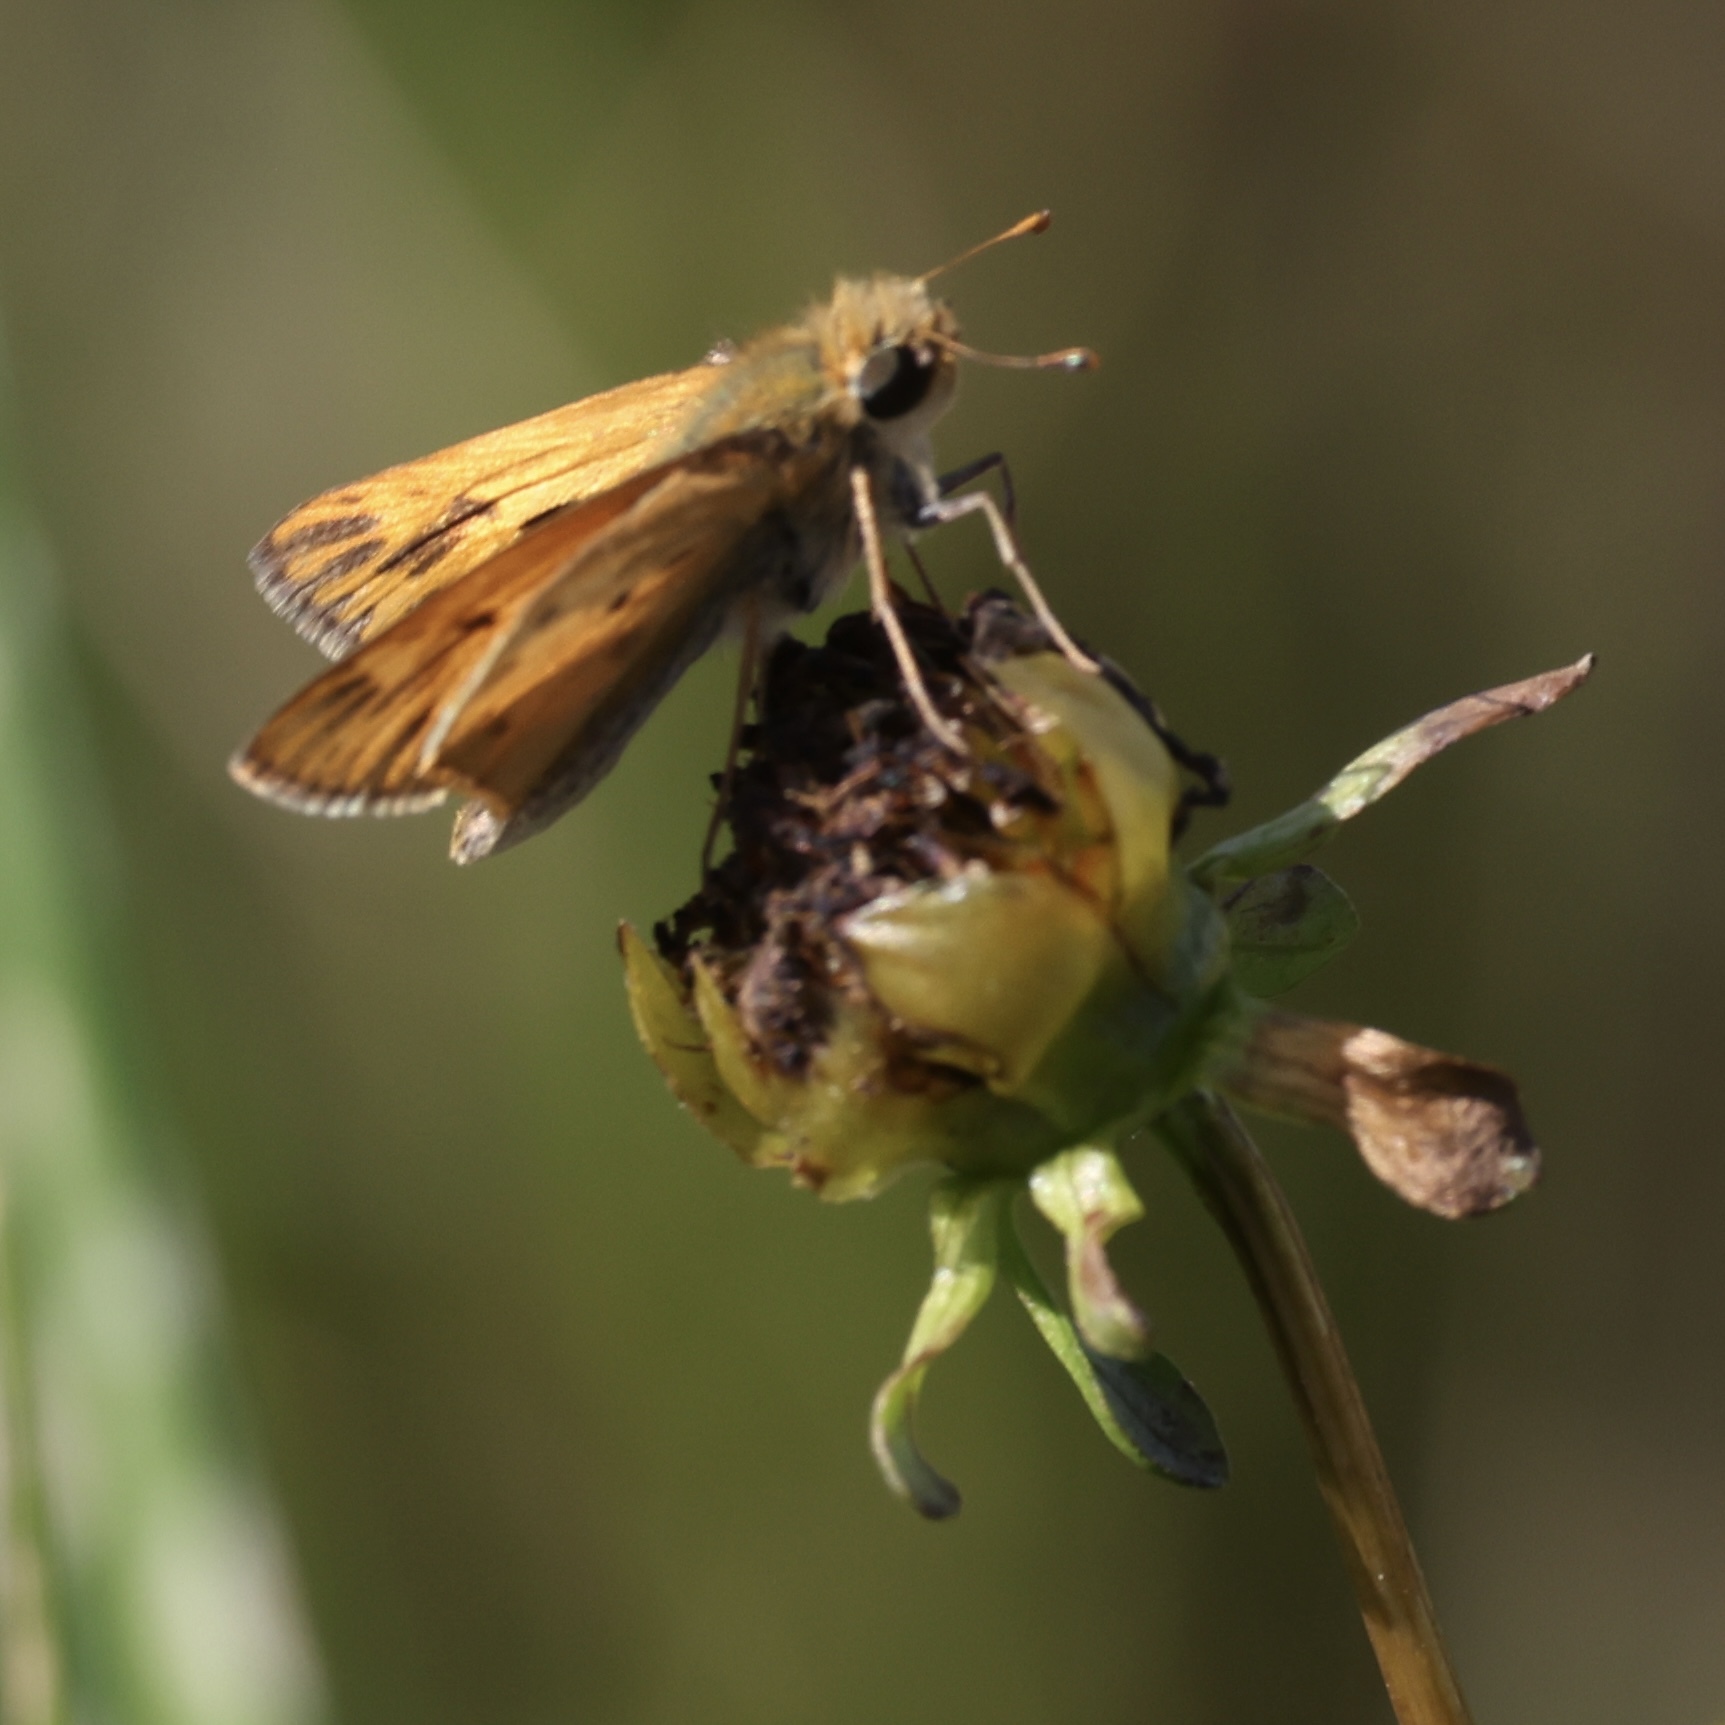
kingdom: Animalia
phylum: Arthropoda
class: Insecta
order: Lepidoptera
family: Hesperiidae
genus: Hylephila
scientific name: Hylephila phyleus
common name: Fiery skipper
